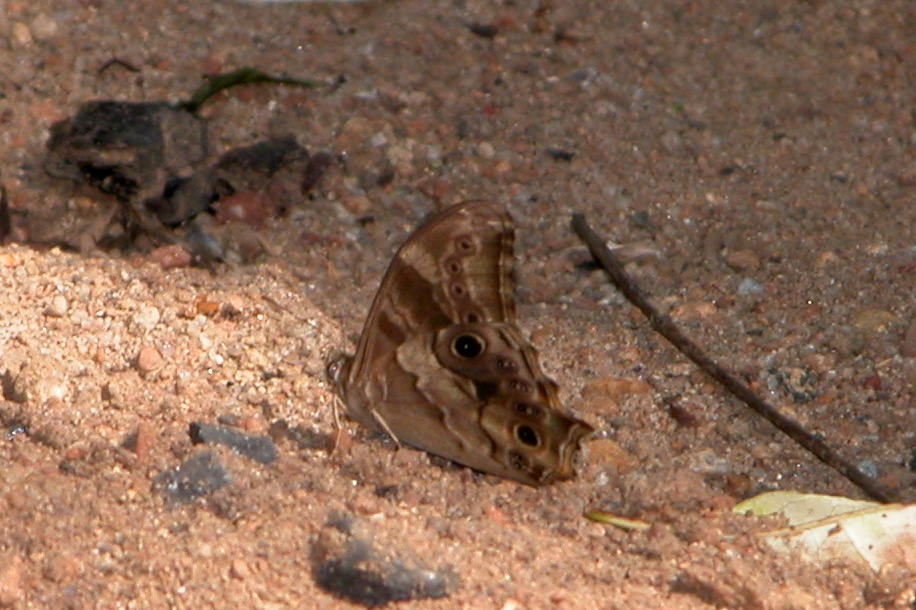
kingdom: Animalia
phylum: Arthropoda
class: Insecta
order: Lepidoptera
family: Nymphalidae
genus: Lethe
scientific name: Lethe drypetis
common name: Tamil treebrown
